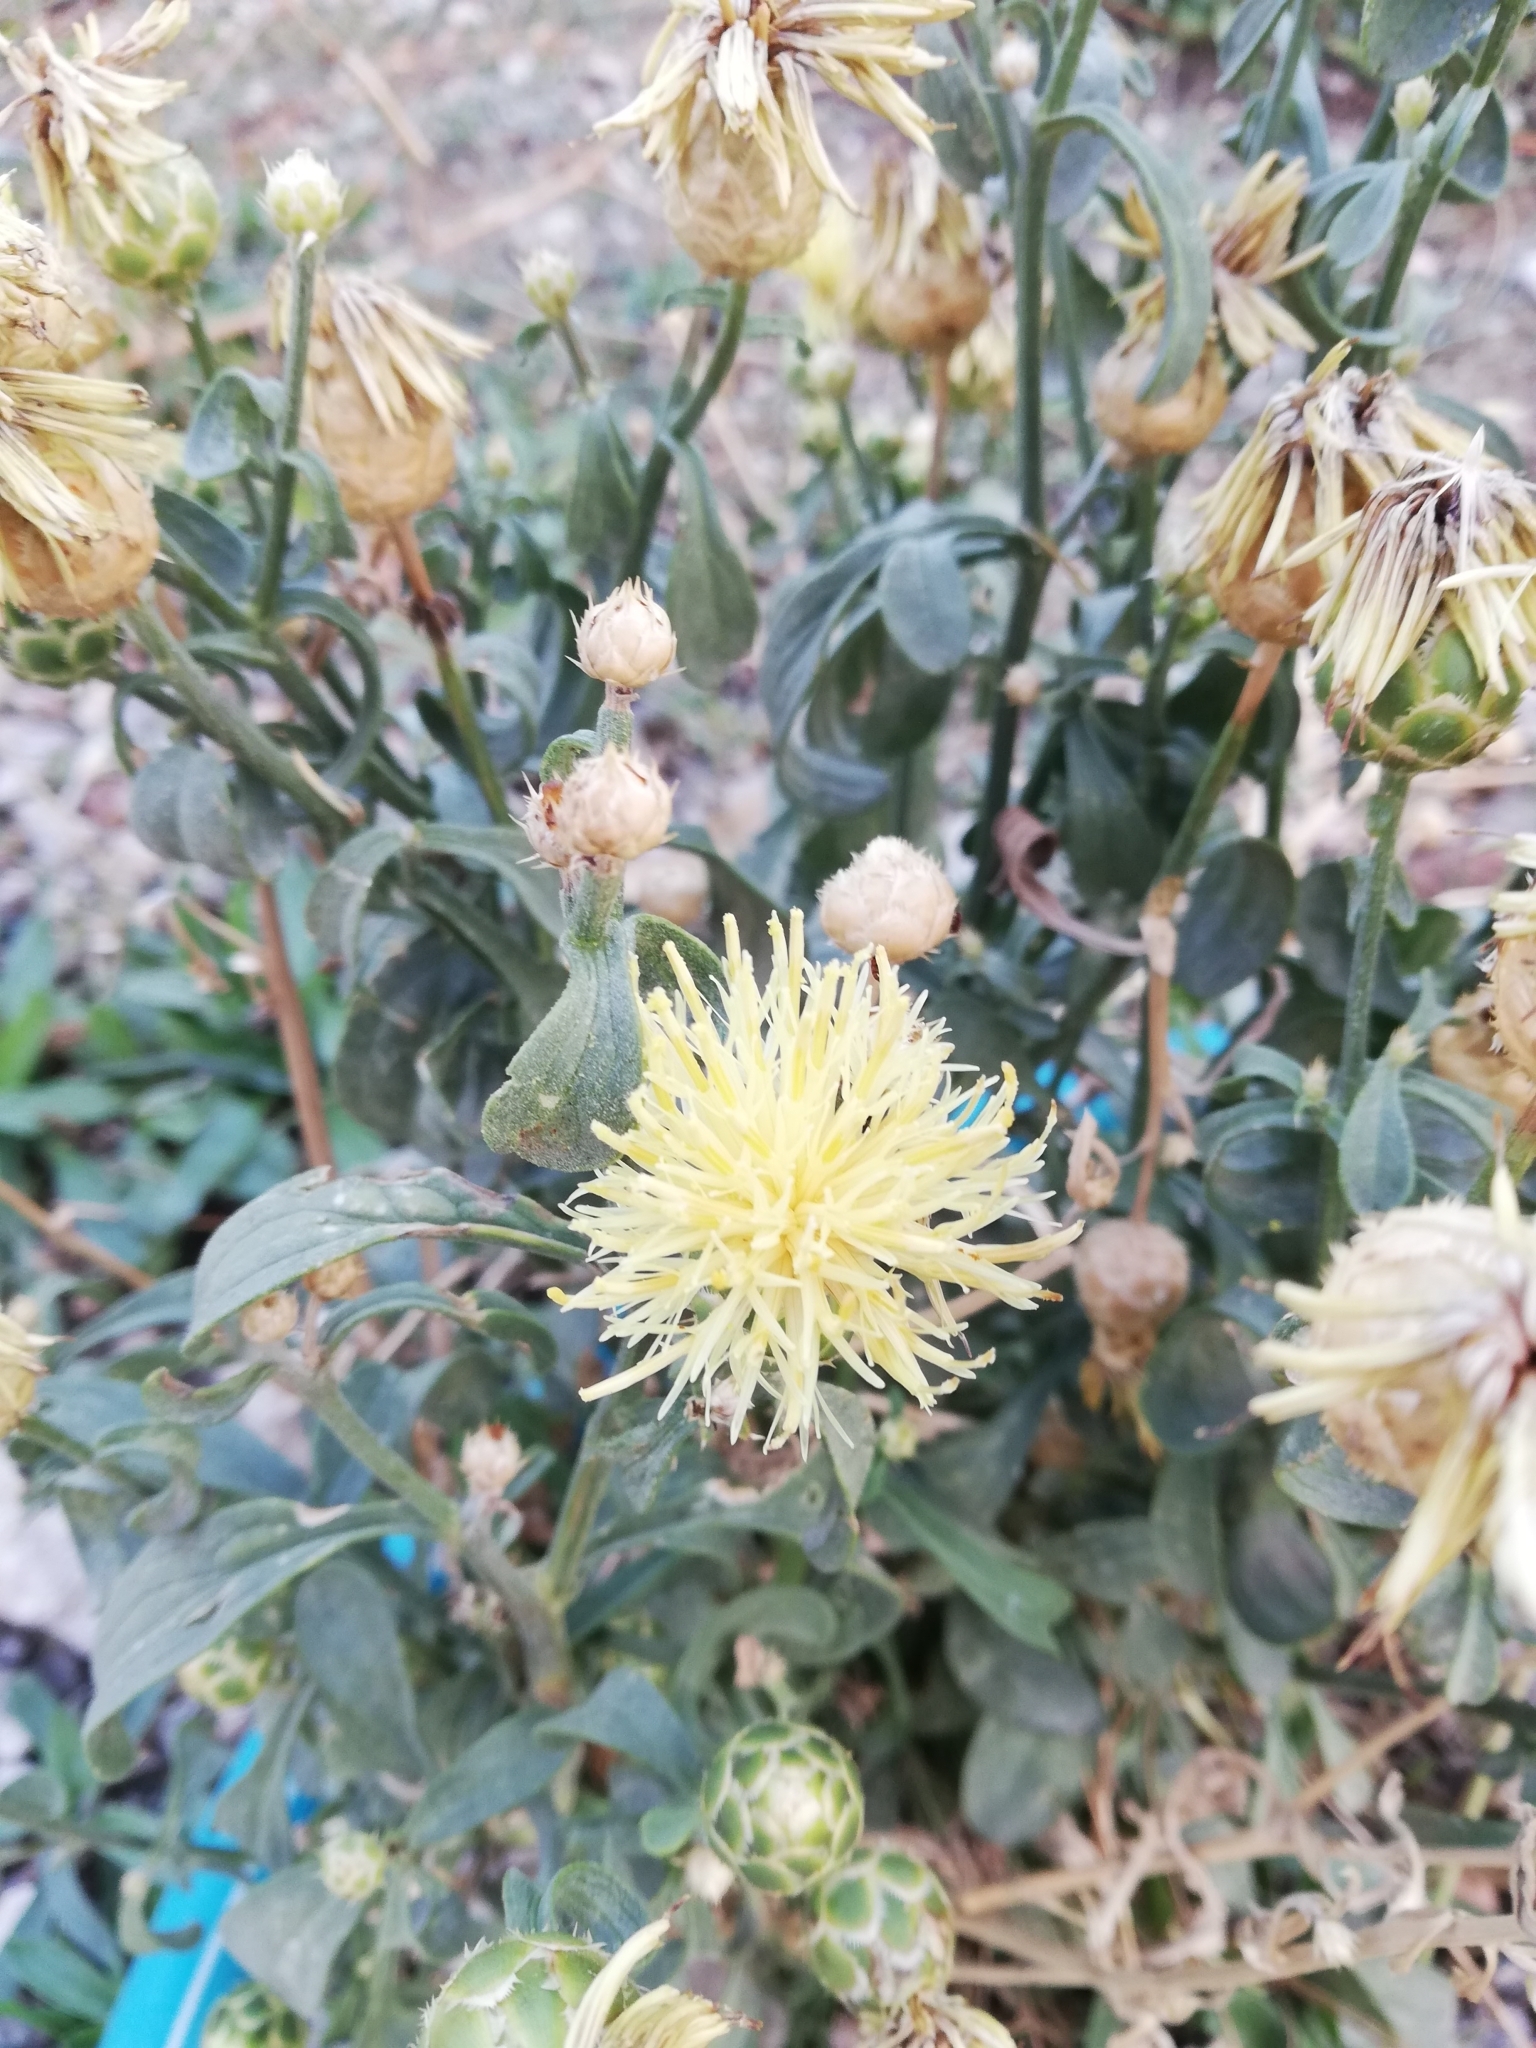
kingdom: Plantae
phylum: Tracheophyta
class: Magnoliopsida
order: Asterales
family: Asteraceae
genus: Centaurea
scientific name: Centaurea salonitana
